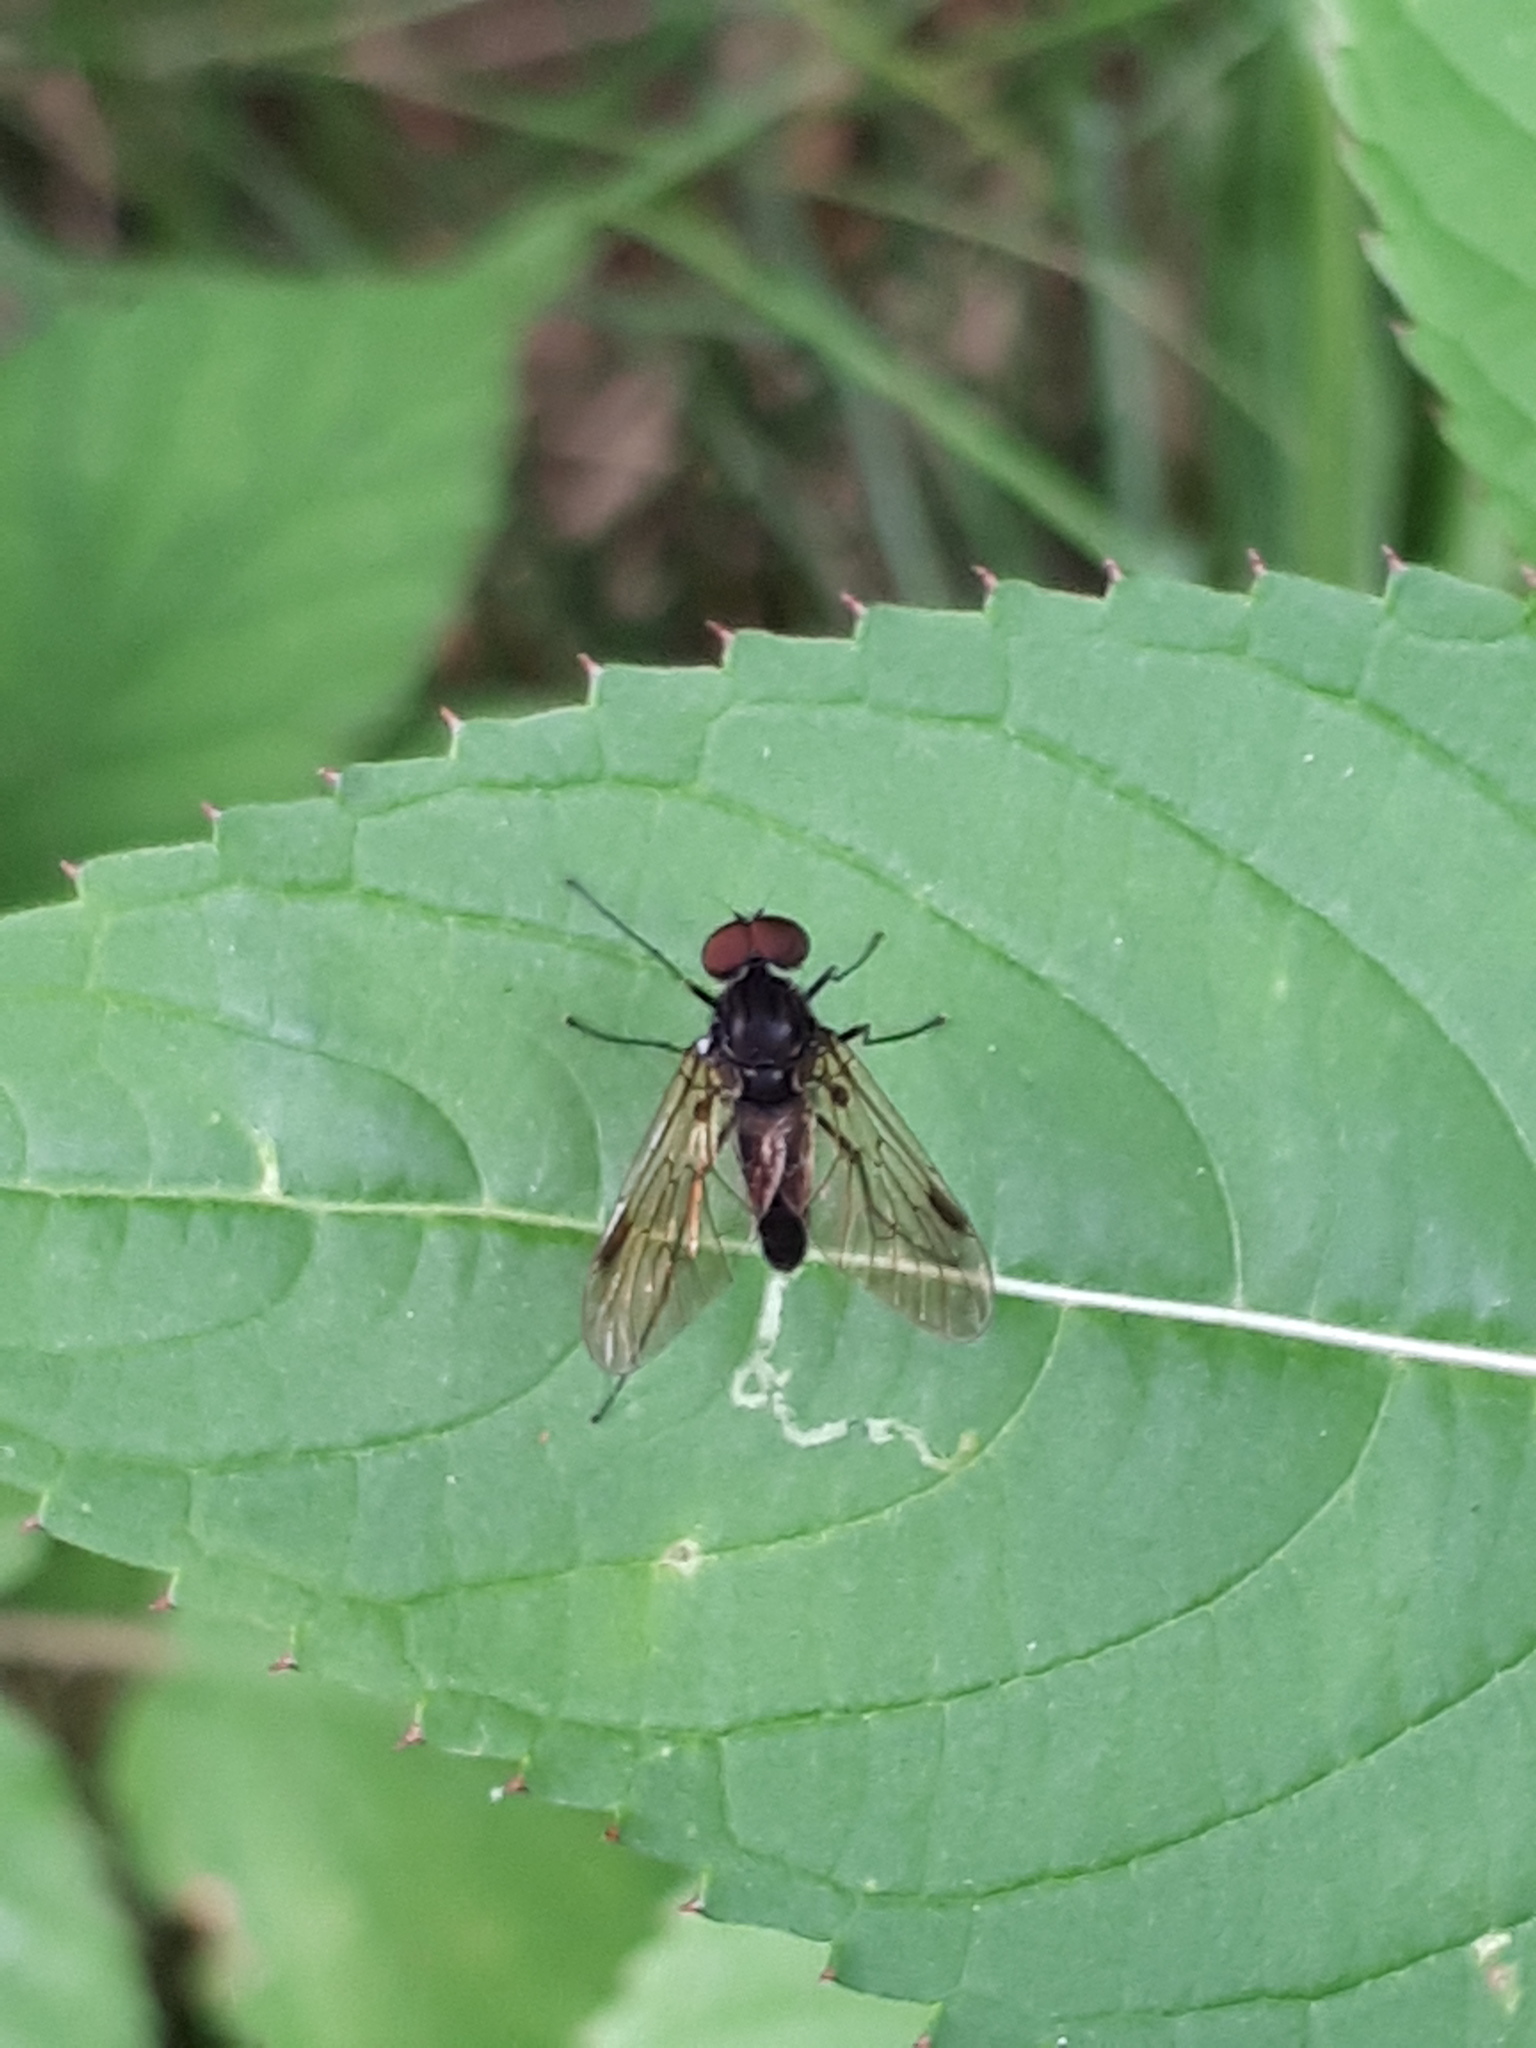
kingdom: Animalia
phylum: Arthropoda
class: Insecta
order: Diptera
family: Rhagionidae
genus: Chrysopilus
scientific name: Chrysopilus cristatus
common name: Black snipefly
